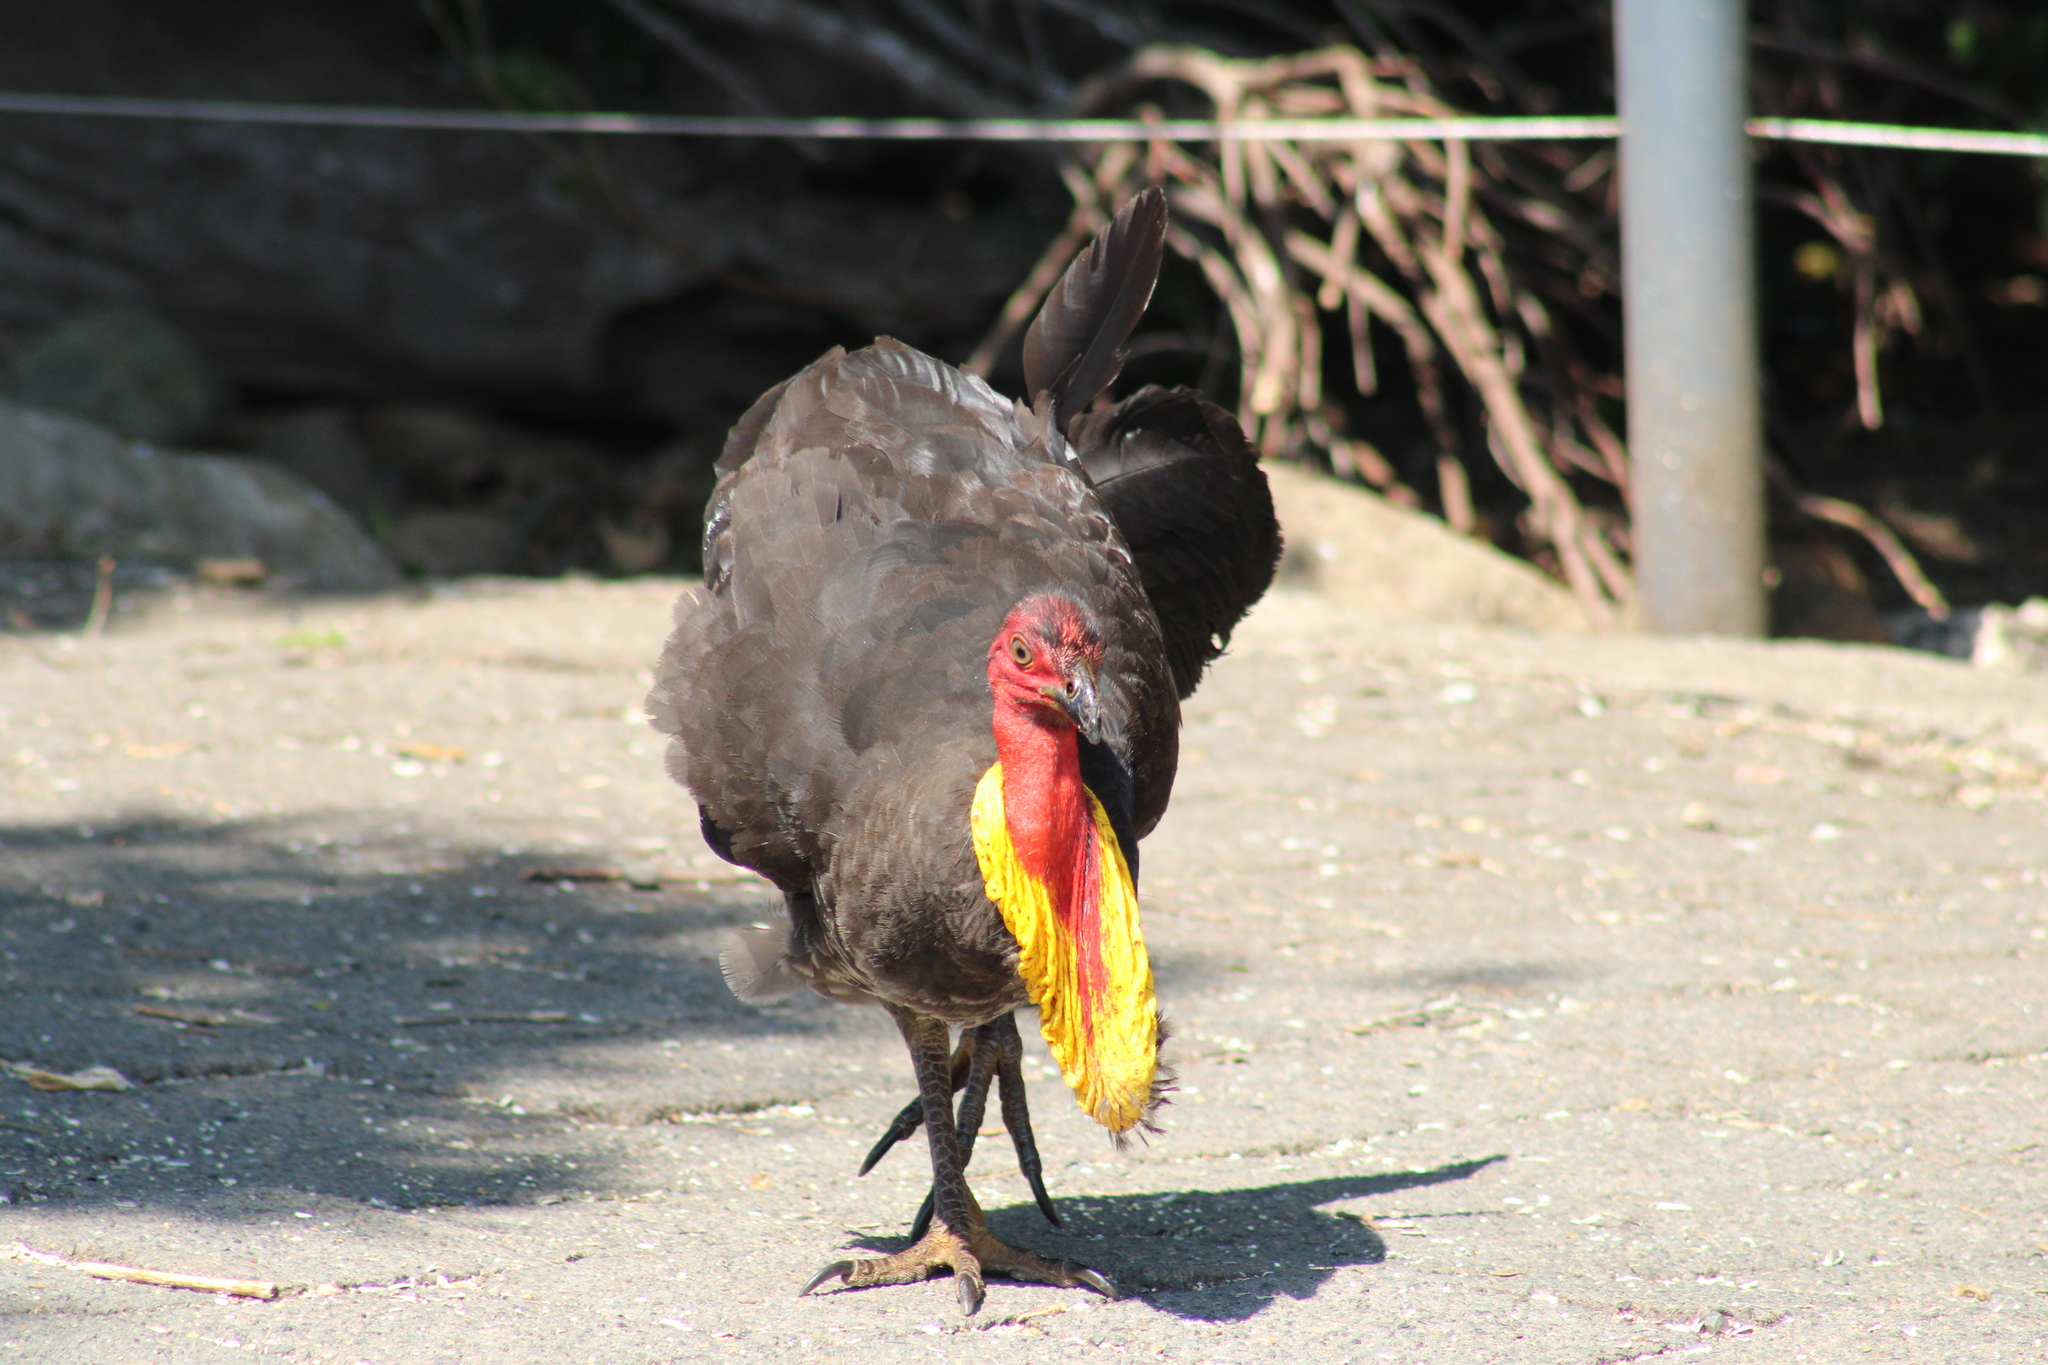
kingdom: Animalia
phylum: Chordata
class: Aves
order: Galliformes
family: Megapodiidae
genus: Alectura
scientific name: Alectura lathami
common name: Australian brushturkey
